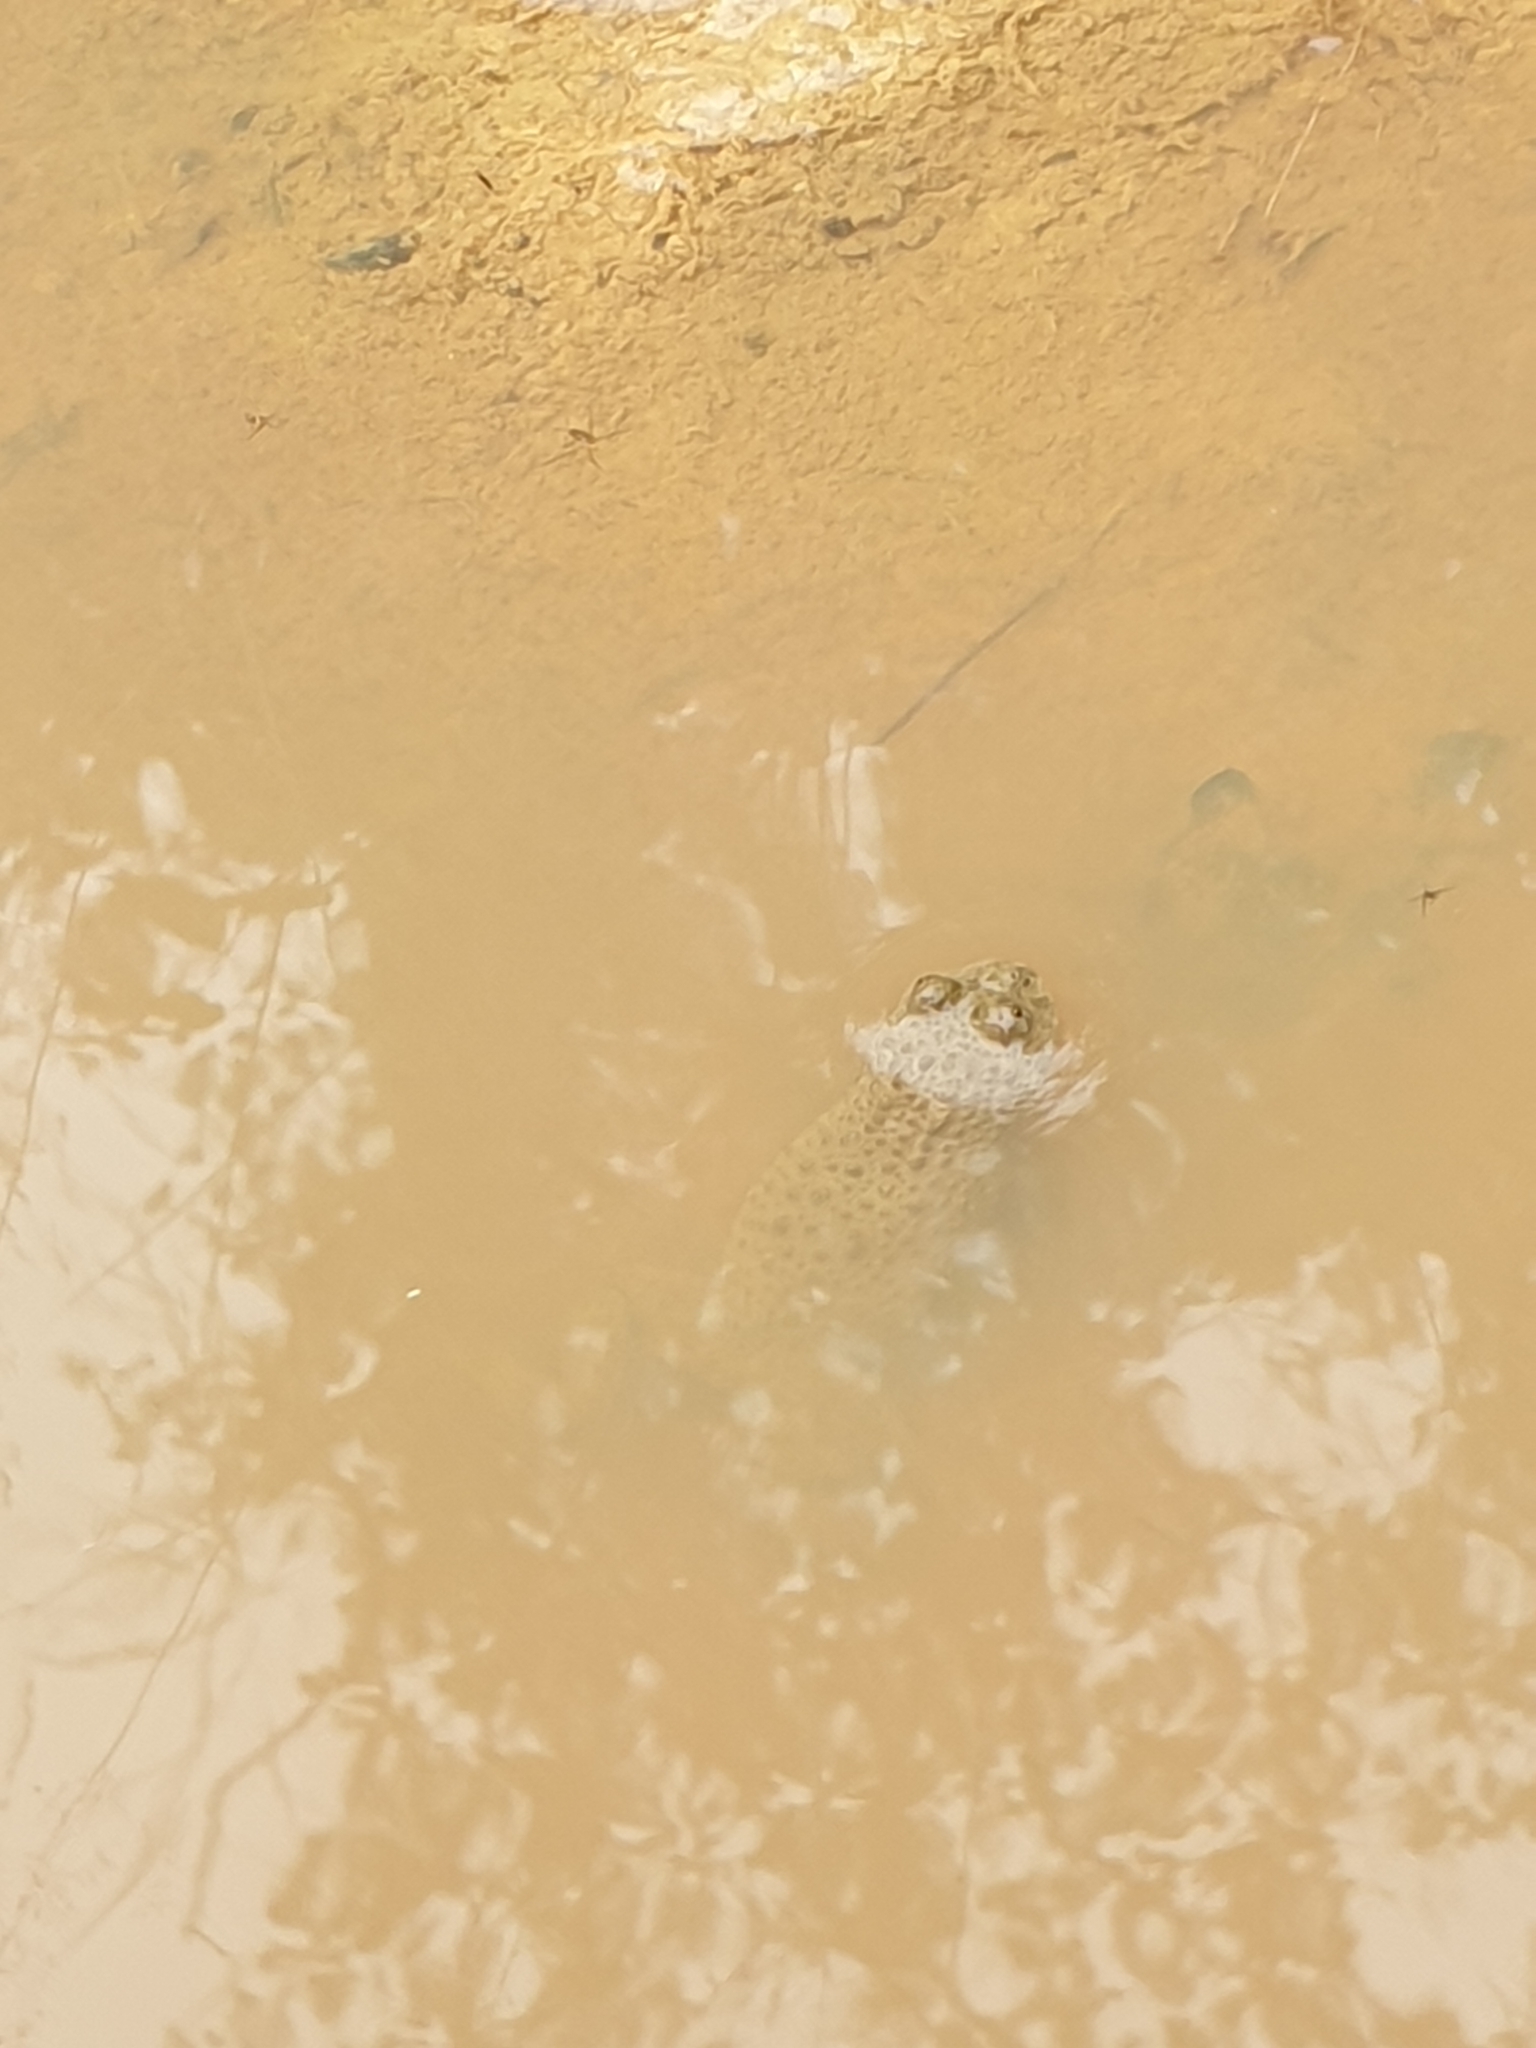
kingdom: Animalia
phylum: Chordata
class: Amphibia
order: Anura
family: Bombinatoridae
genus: Bombina
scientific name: Bombina variegata
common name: Yellow-bellied toad
